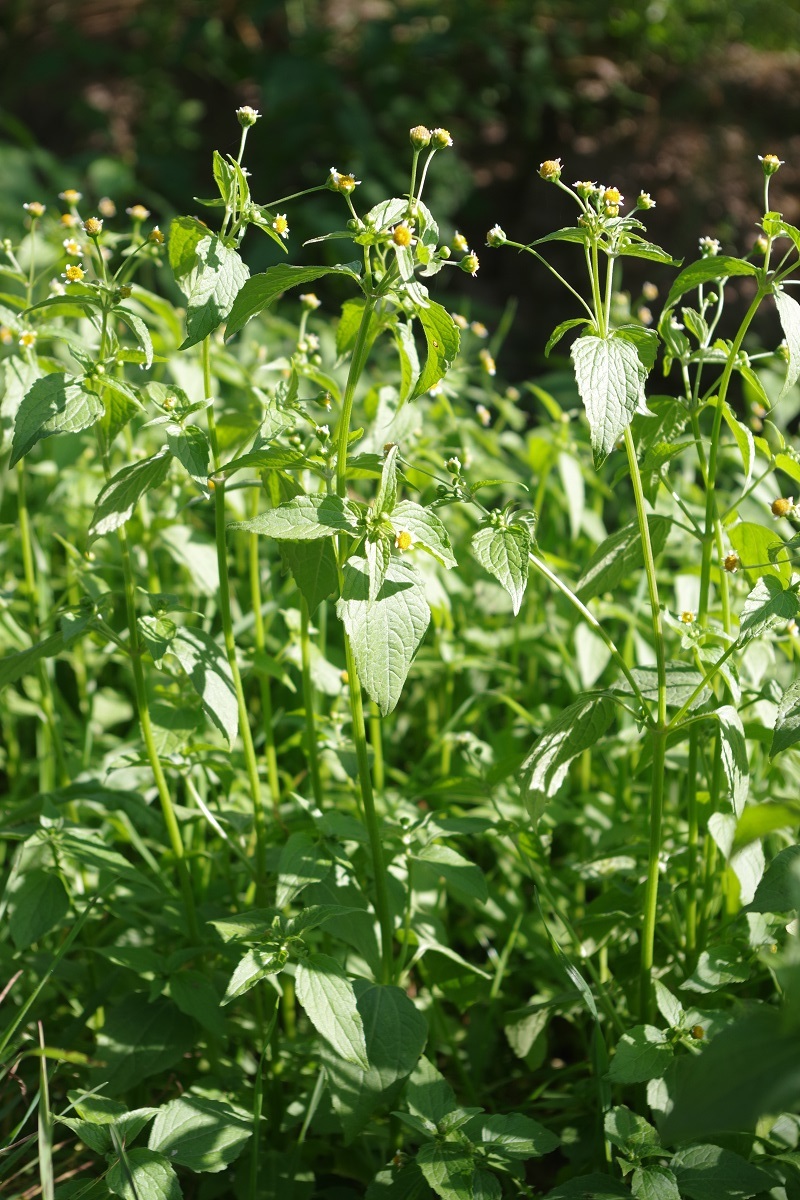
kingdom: Plantae
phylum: Tracheophyta
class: Magnoliopsida
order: Asterales
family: Asteraceae
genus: Galinsoga
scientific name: Galinsoga parviflora
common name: Gallant soldier
